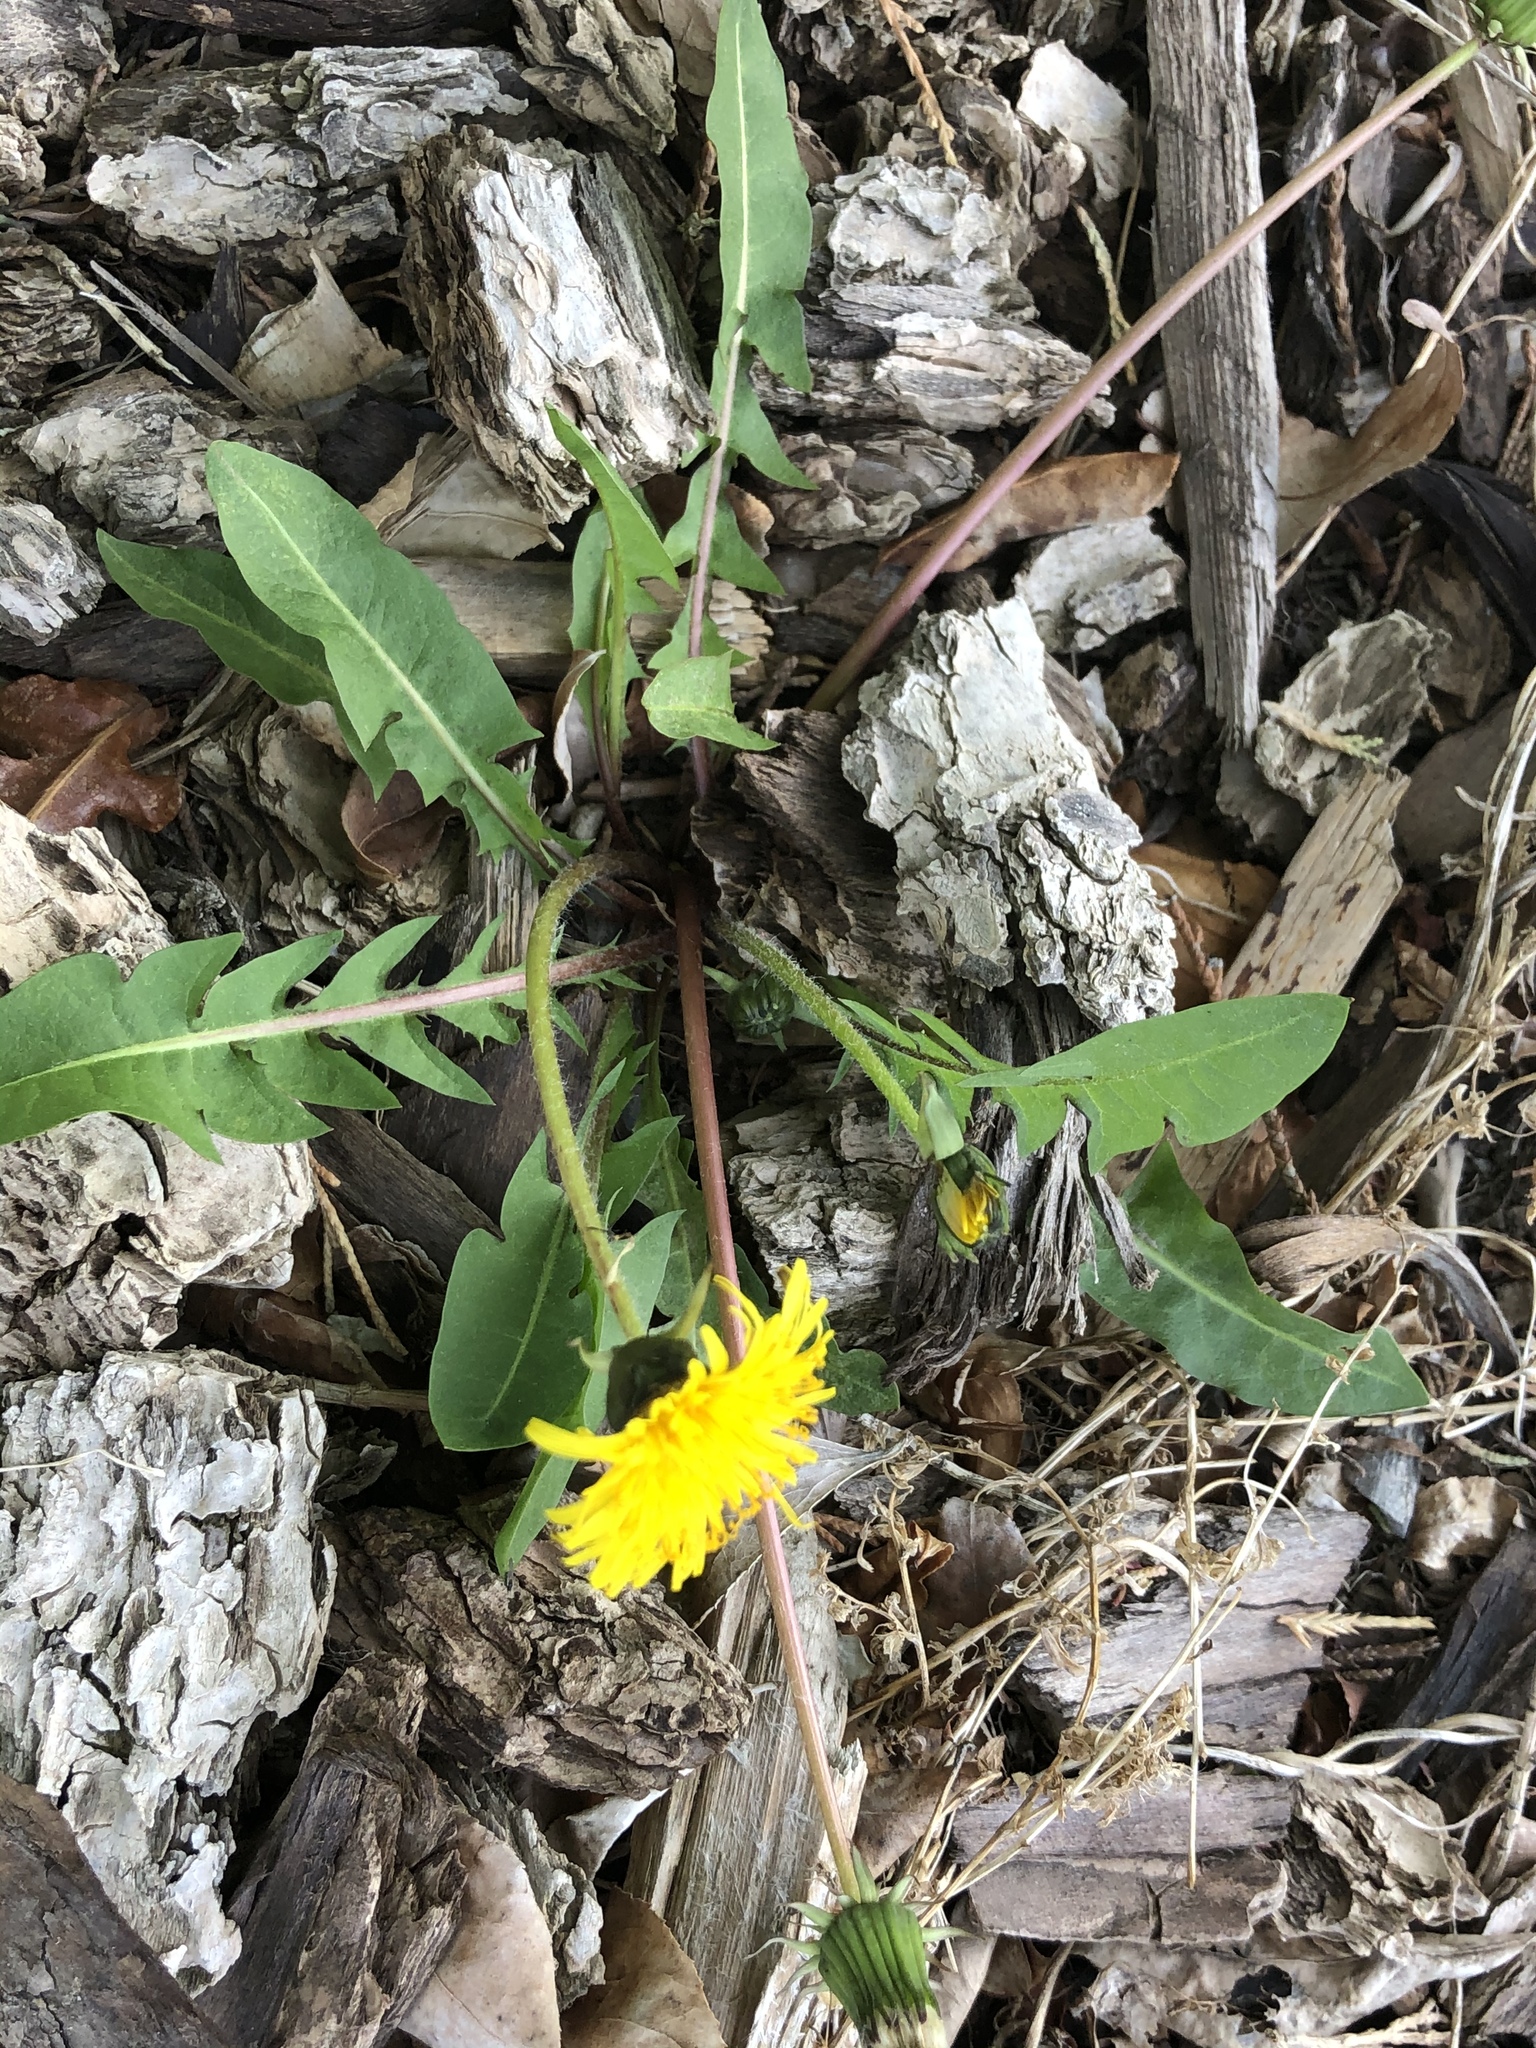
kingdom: Plantae
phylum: Tracheophyta
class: Magnoliopsida
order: Asterales
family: Asteraceae
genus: Taraxacum
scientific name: Taraxacum officinale
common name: Common dandelion
